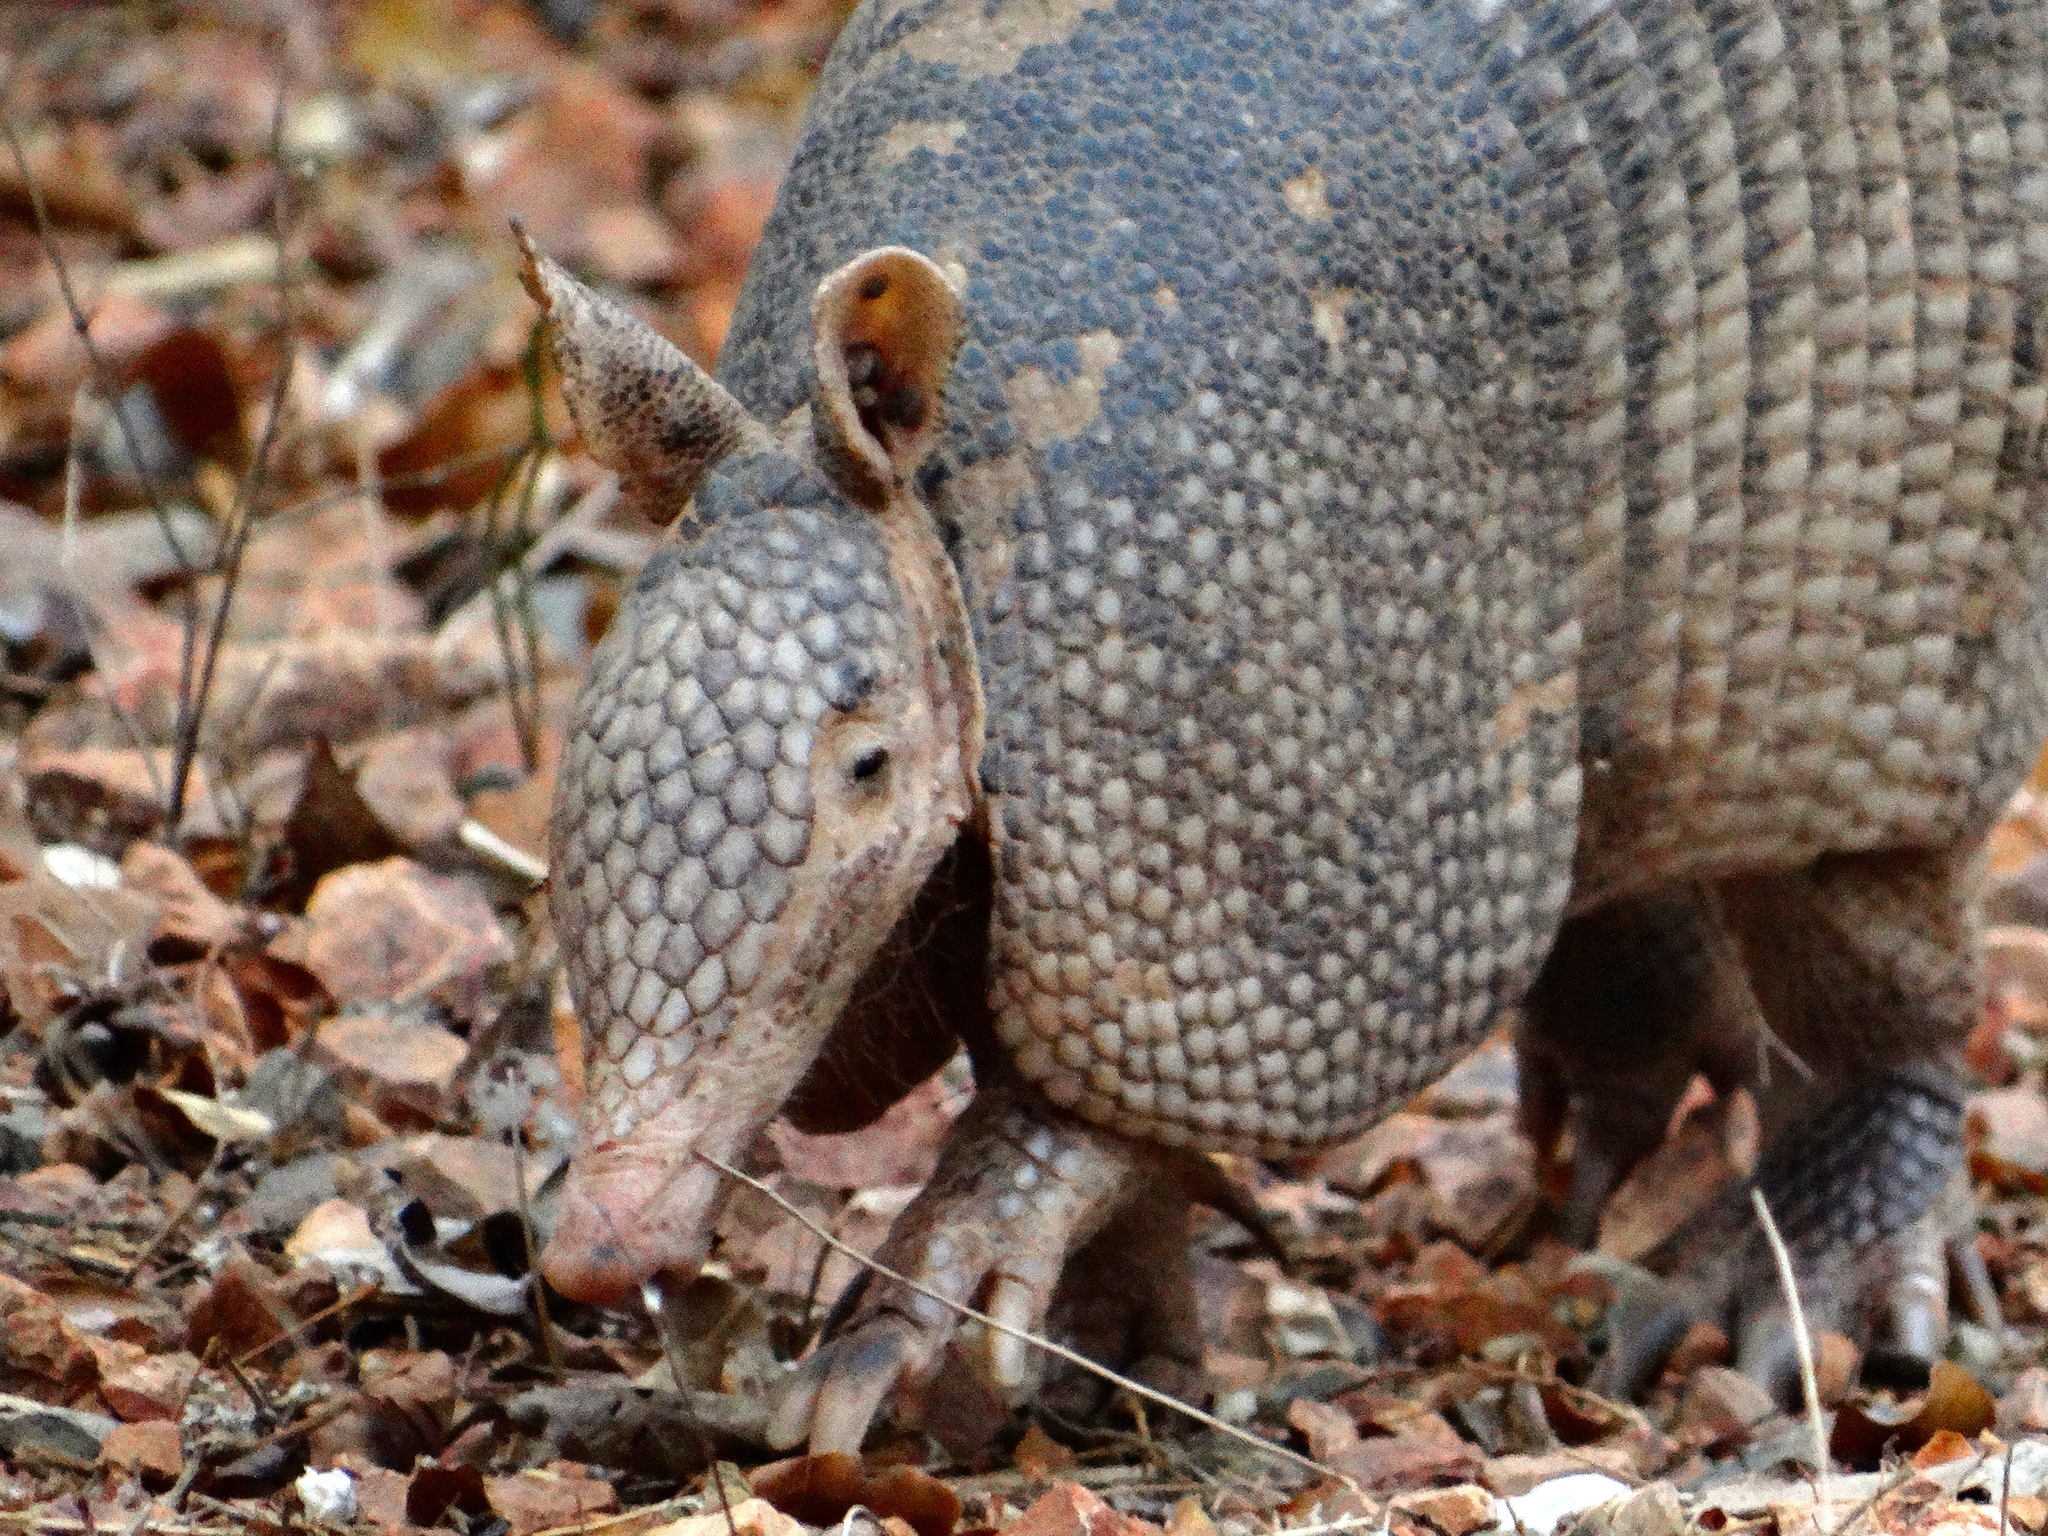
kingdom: Animalia
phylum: Chordata
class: Mammalia
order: Cingulata
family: Dasypodidae
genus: Dasypus
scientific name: Dasypus novemcinctus
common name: Nine-banded armadillo
